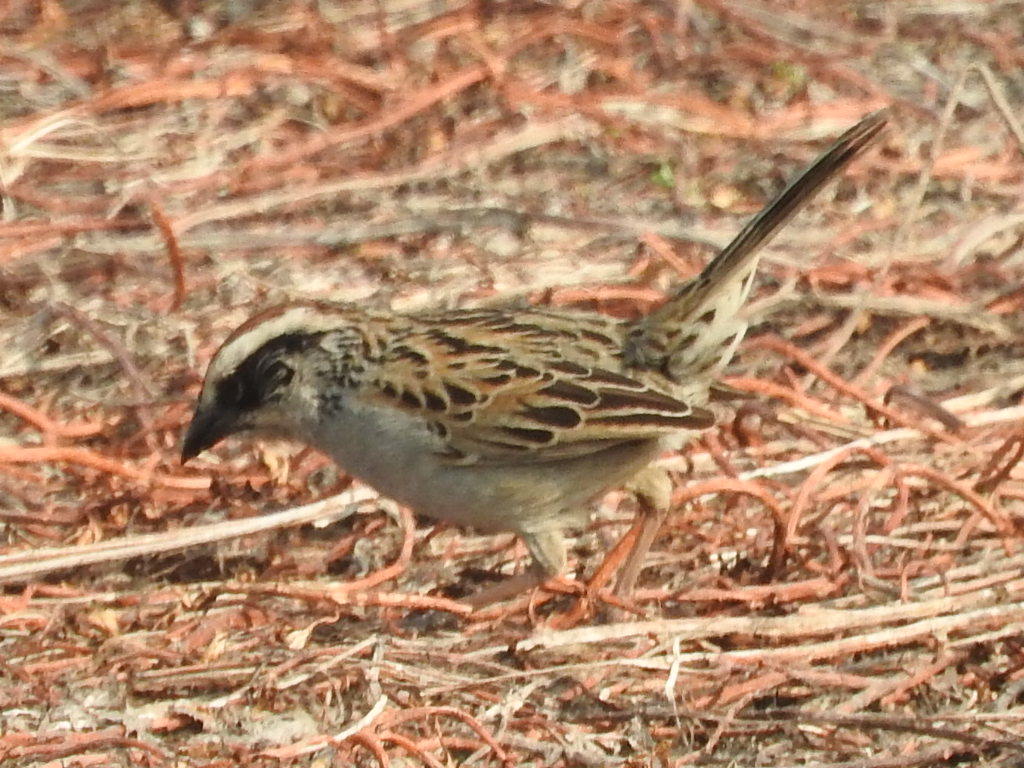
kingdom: Animalia
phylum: Chordata
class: Aves
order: Passeriformes
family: Passerellidae
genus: Oriturus
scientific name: Oriturus superciliosus
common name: Striped sparrow
